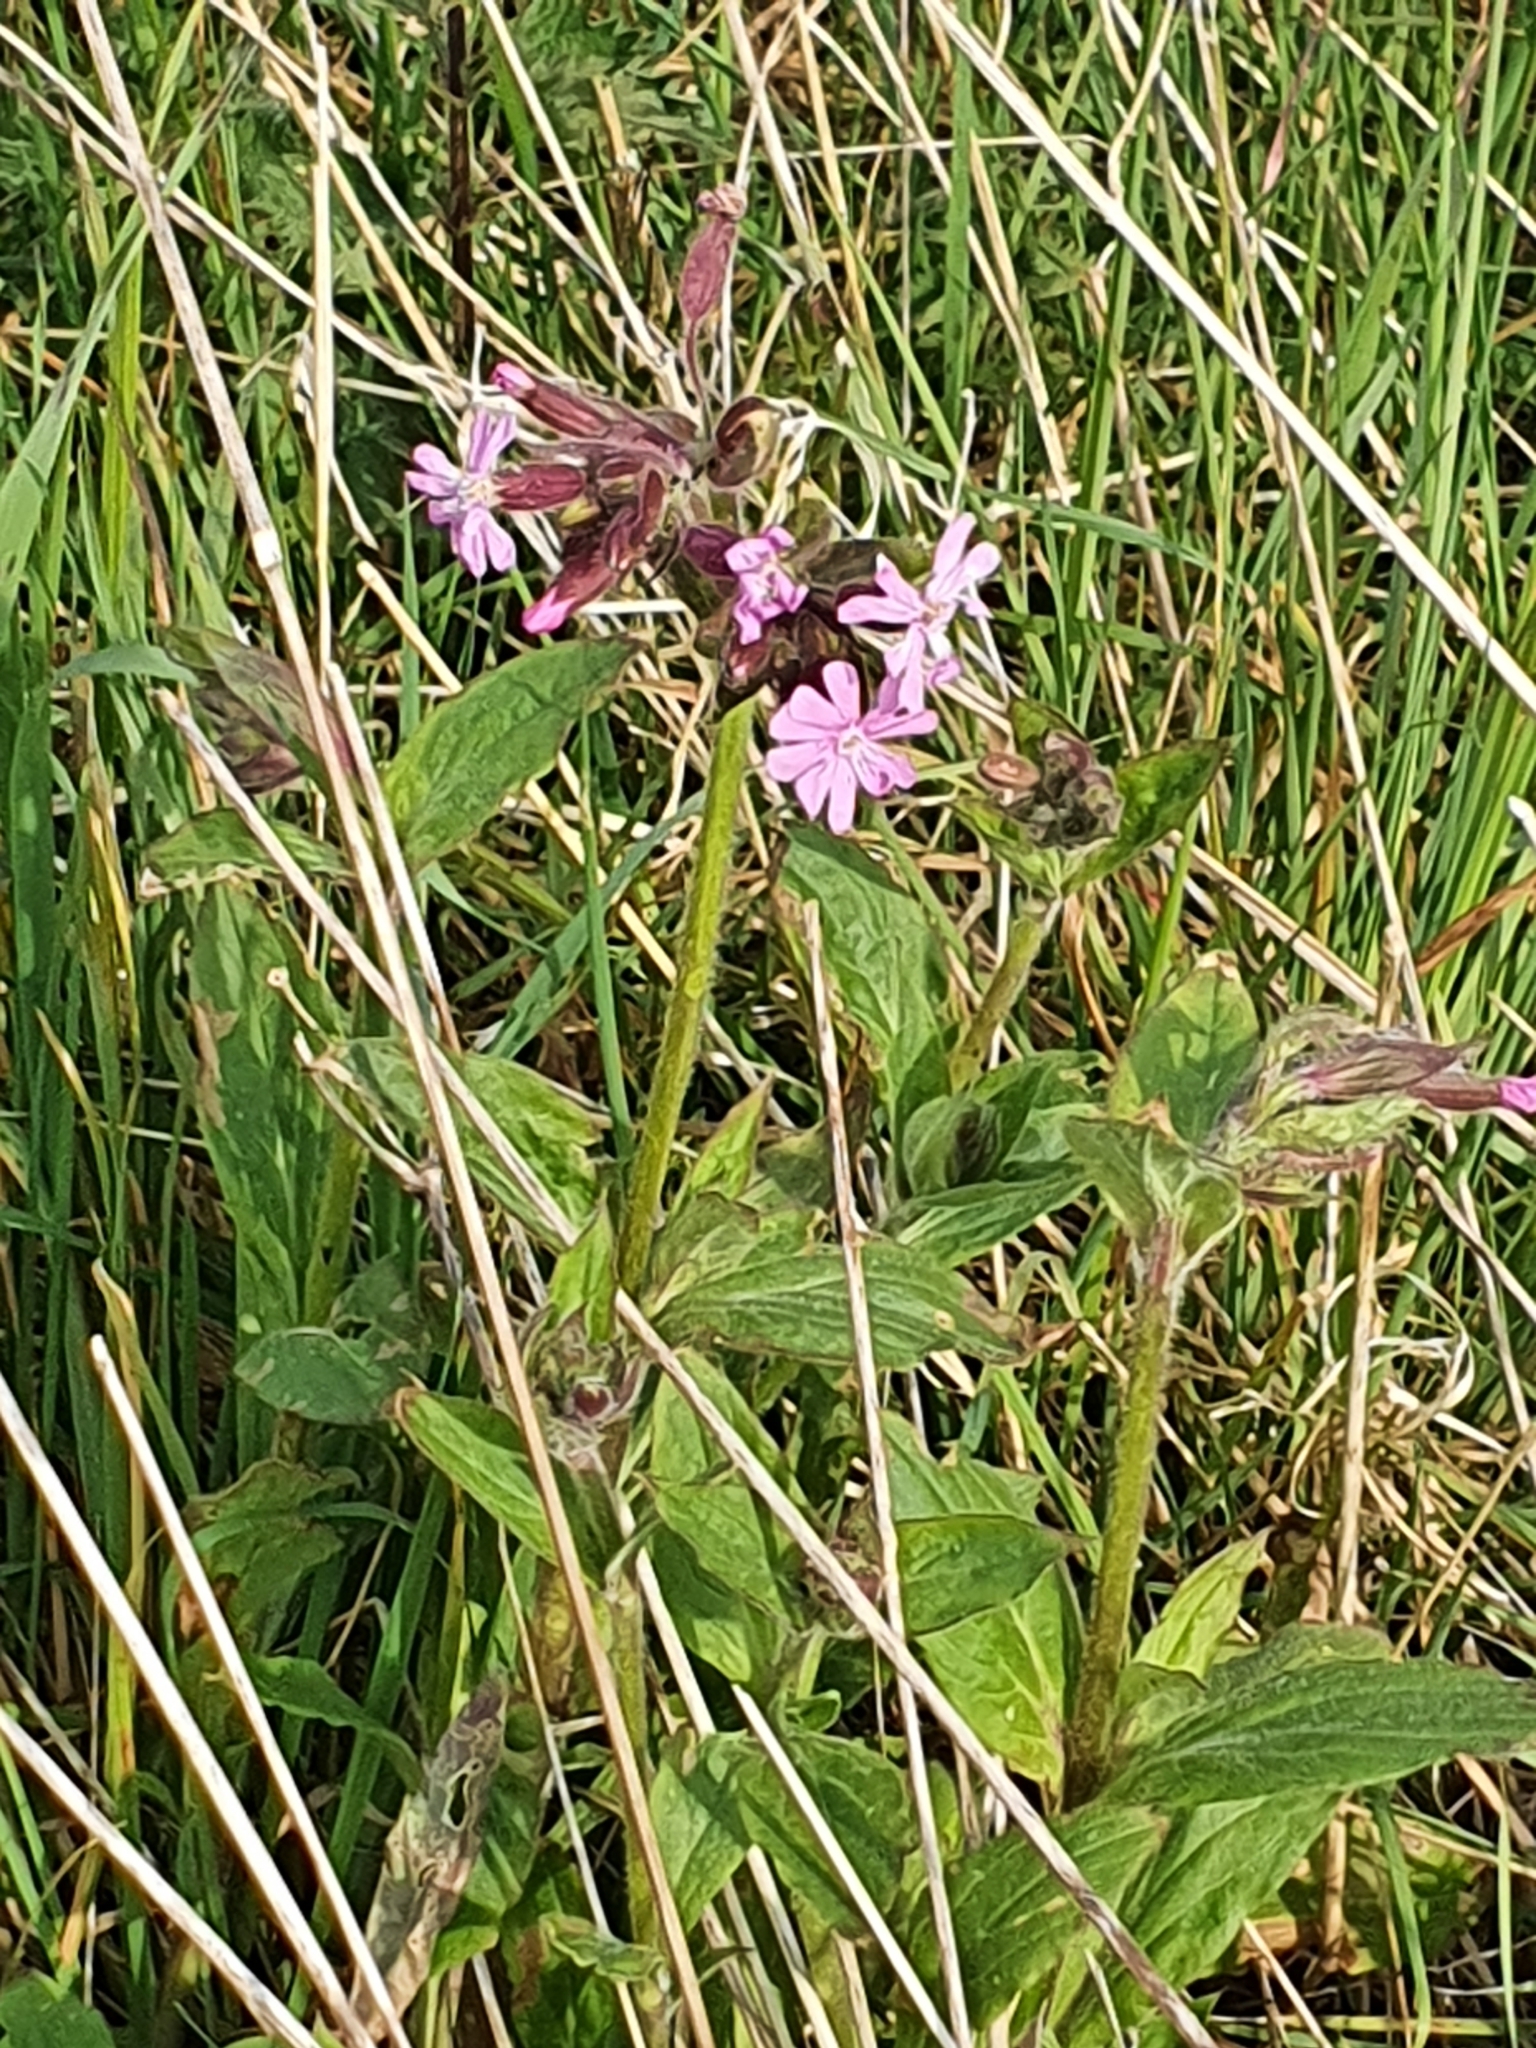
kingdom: Plantae
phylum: Tracheophyta
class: Magnoliopsida
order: Caryophyllales
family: Caryophyllaceae
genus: Silene
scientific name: Silene dioica
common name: Red campion
